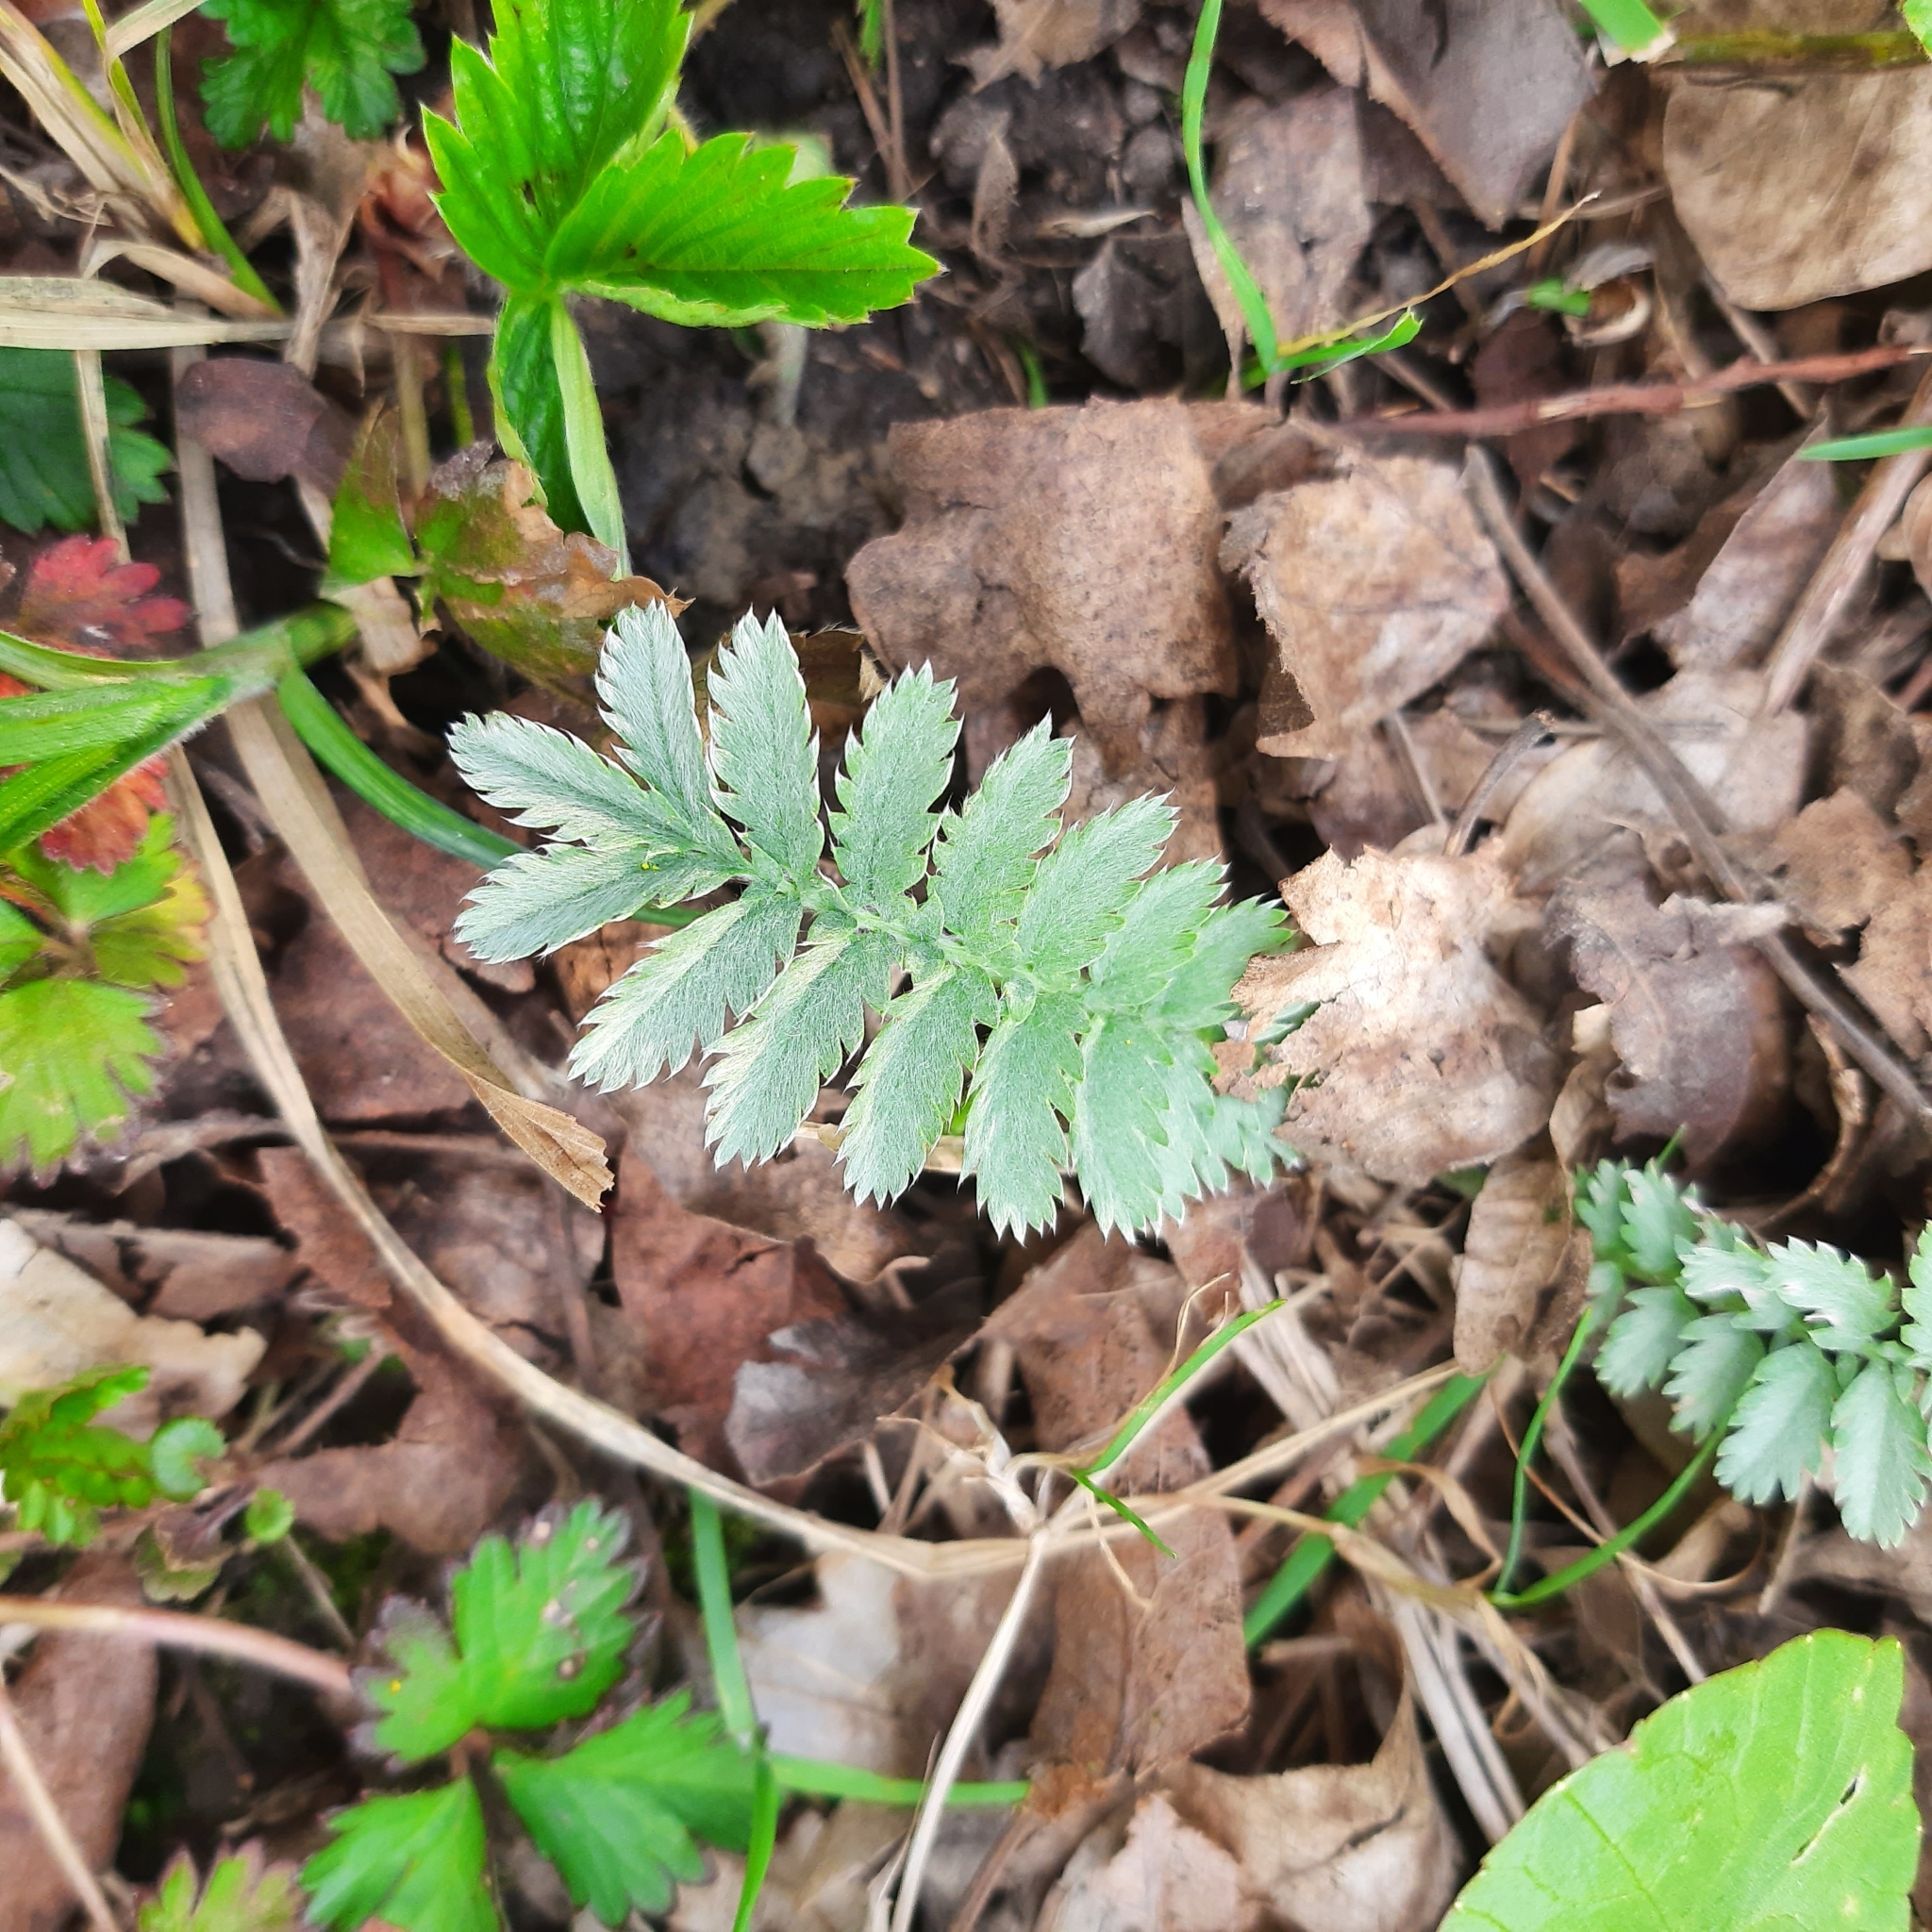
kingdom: Plantae
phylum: Tracheophyta
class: Magnoliopsida
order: Rosales
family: Rosaceae
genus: Argentina
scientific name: Argentina anserina
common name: Common silverweed
